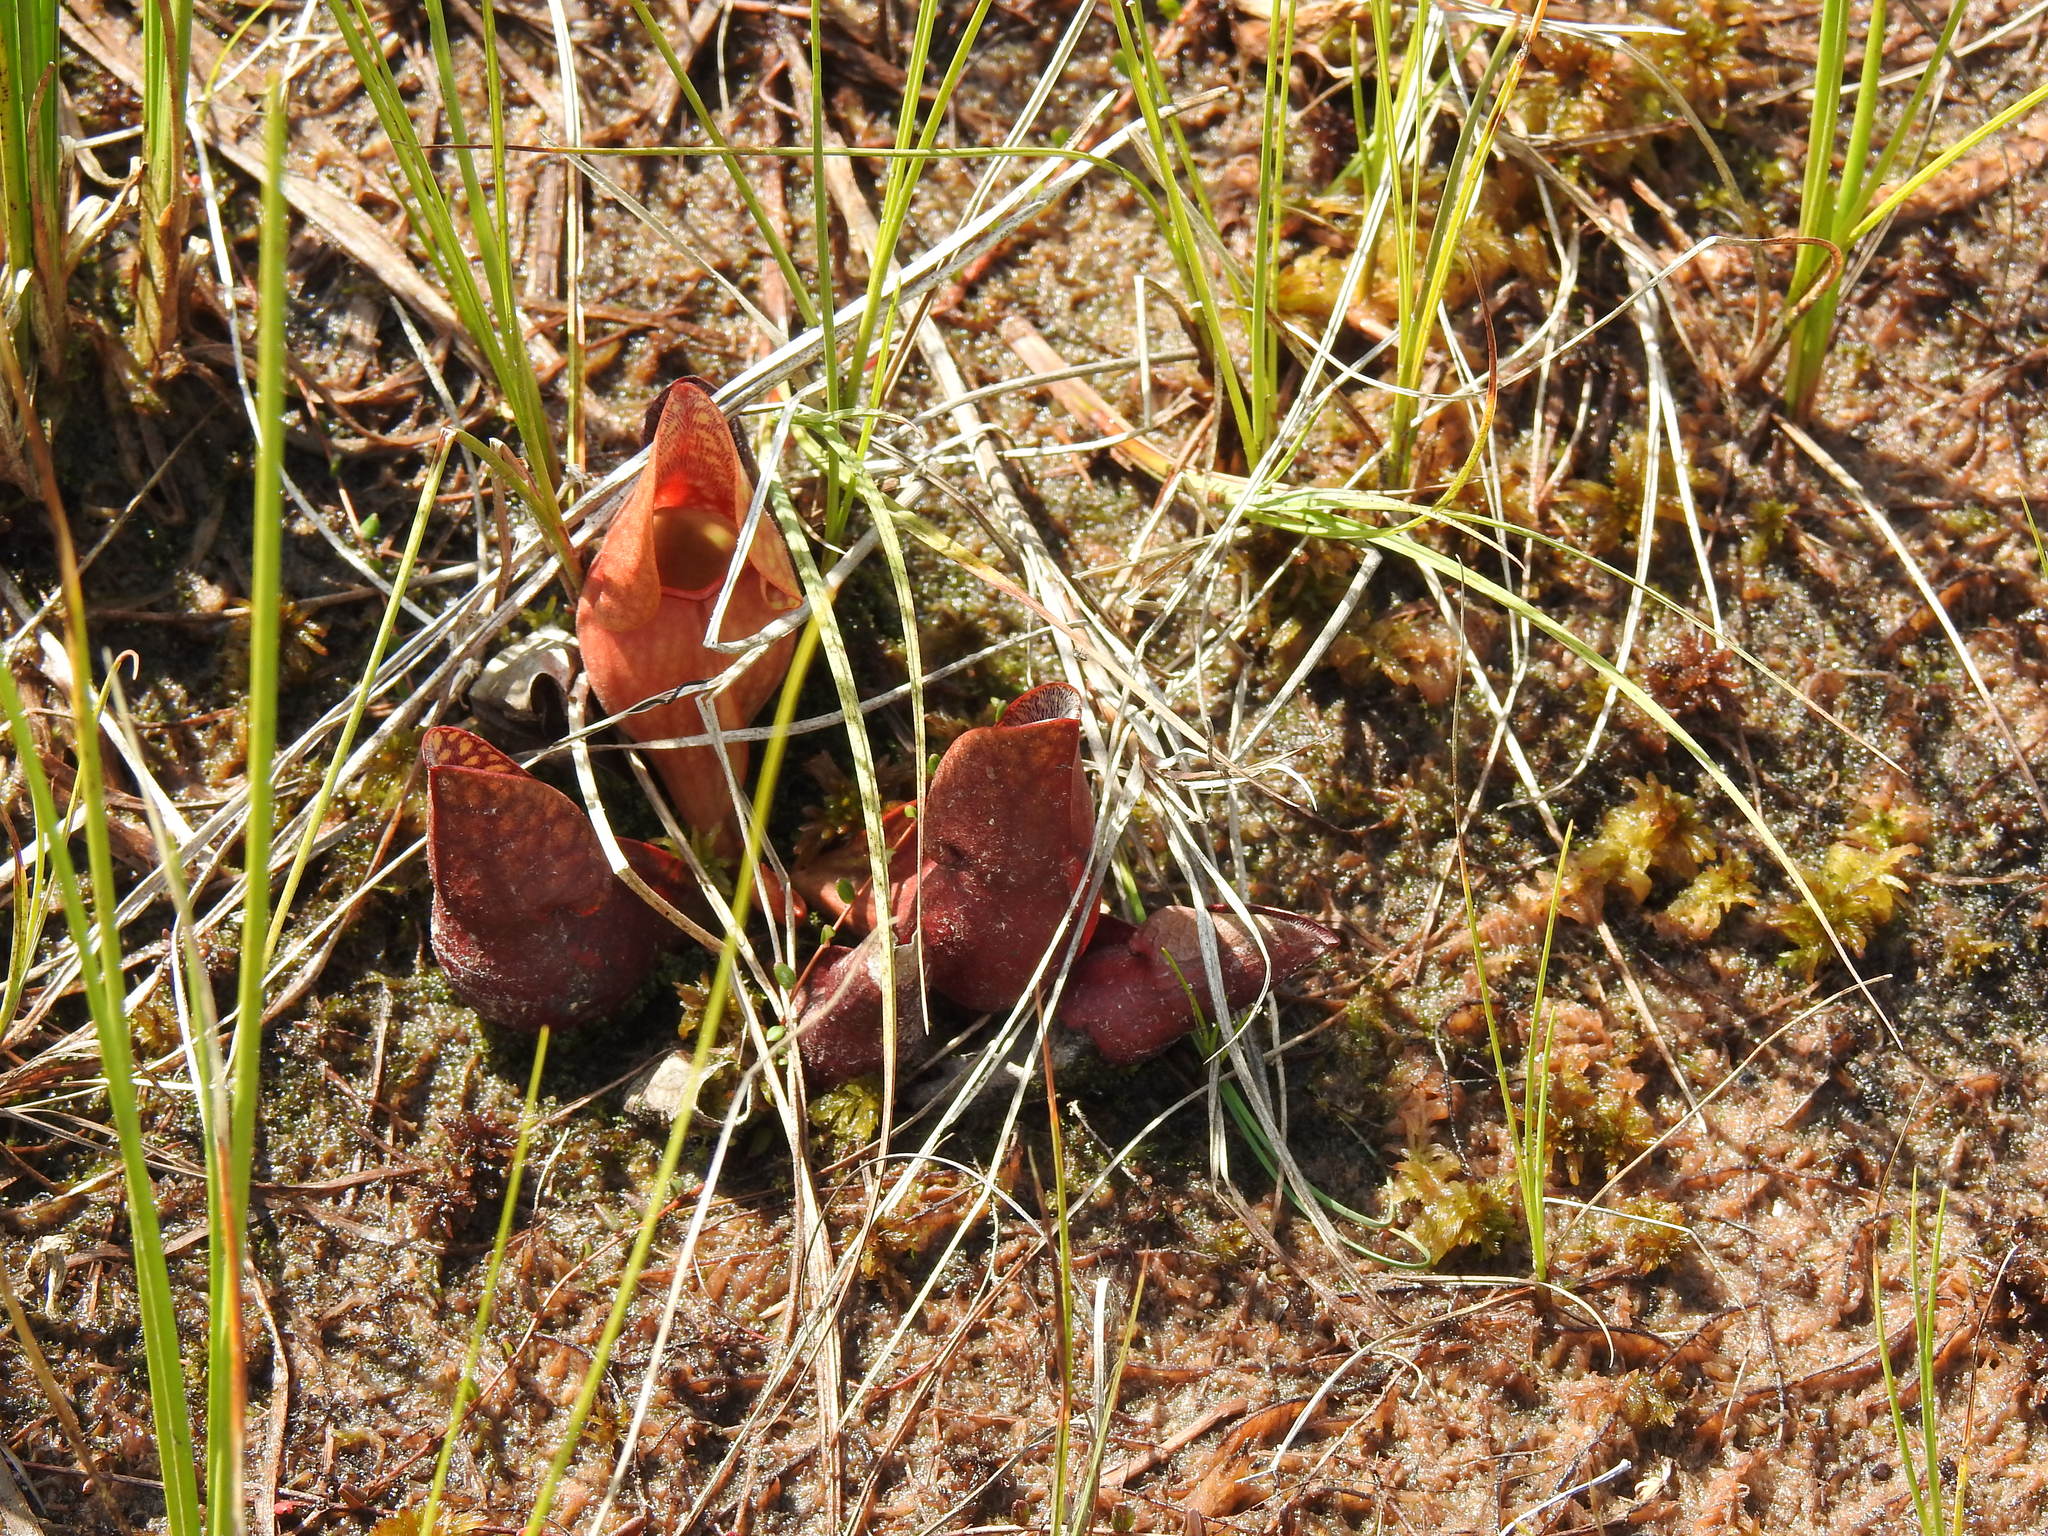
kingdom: Plantae
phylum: Tracheophyta
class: Magnoliopsida
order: Ericales
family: Sarraceniaceae
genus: Sarracenia
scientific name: Sarracenia purpurea
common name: Pitcherplant
